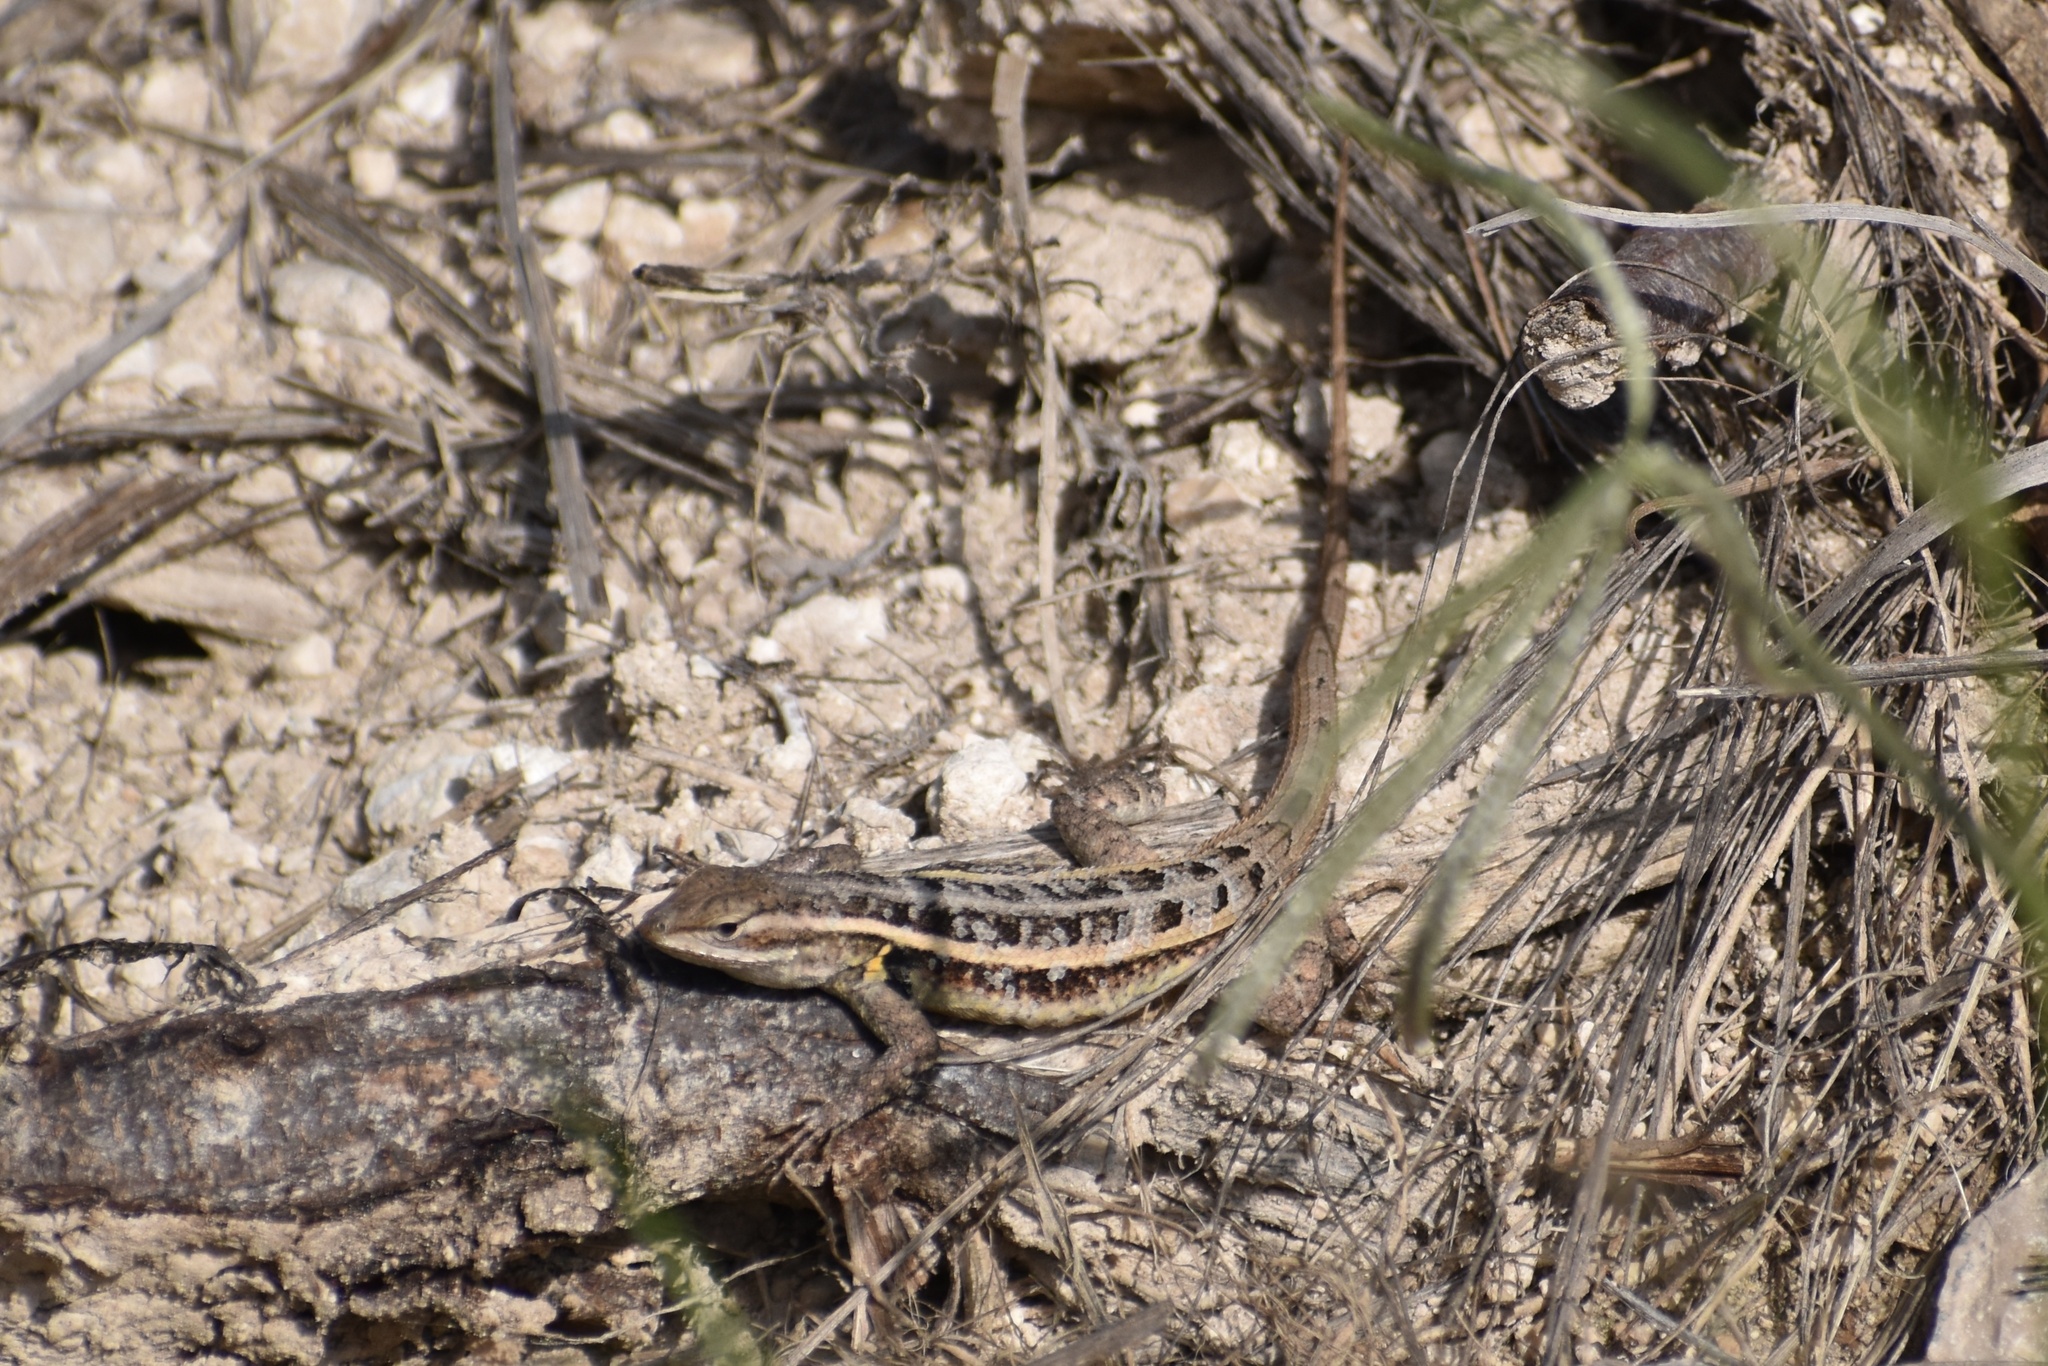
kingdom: Animalia
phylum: Chordata
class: Squamata
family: Phrynosomatidae
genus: Sceloporus
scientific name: Sceloporus variabilis
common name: Rosebelly lizard
